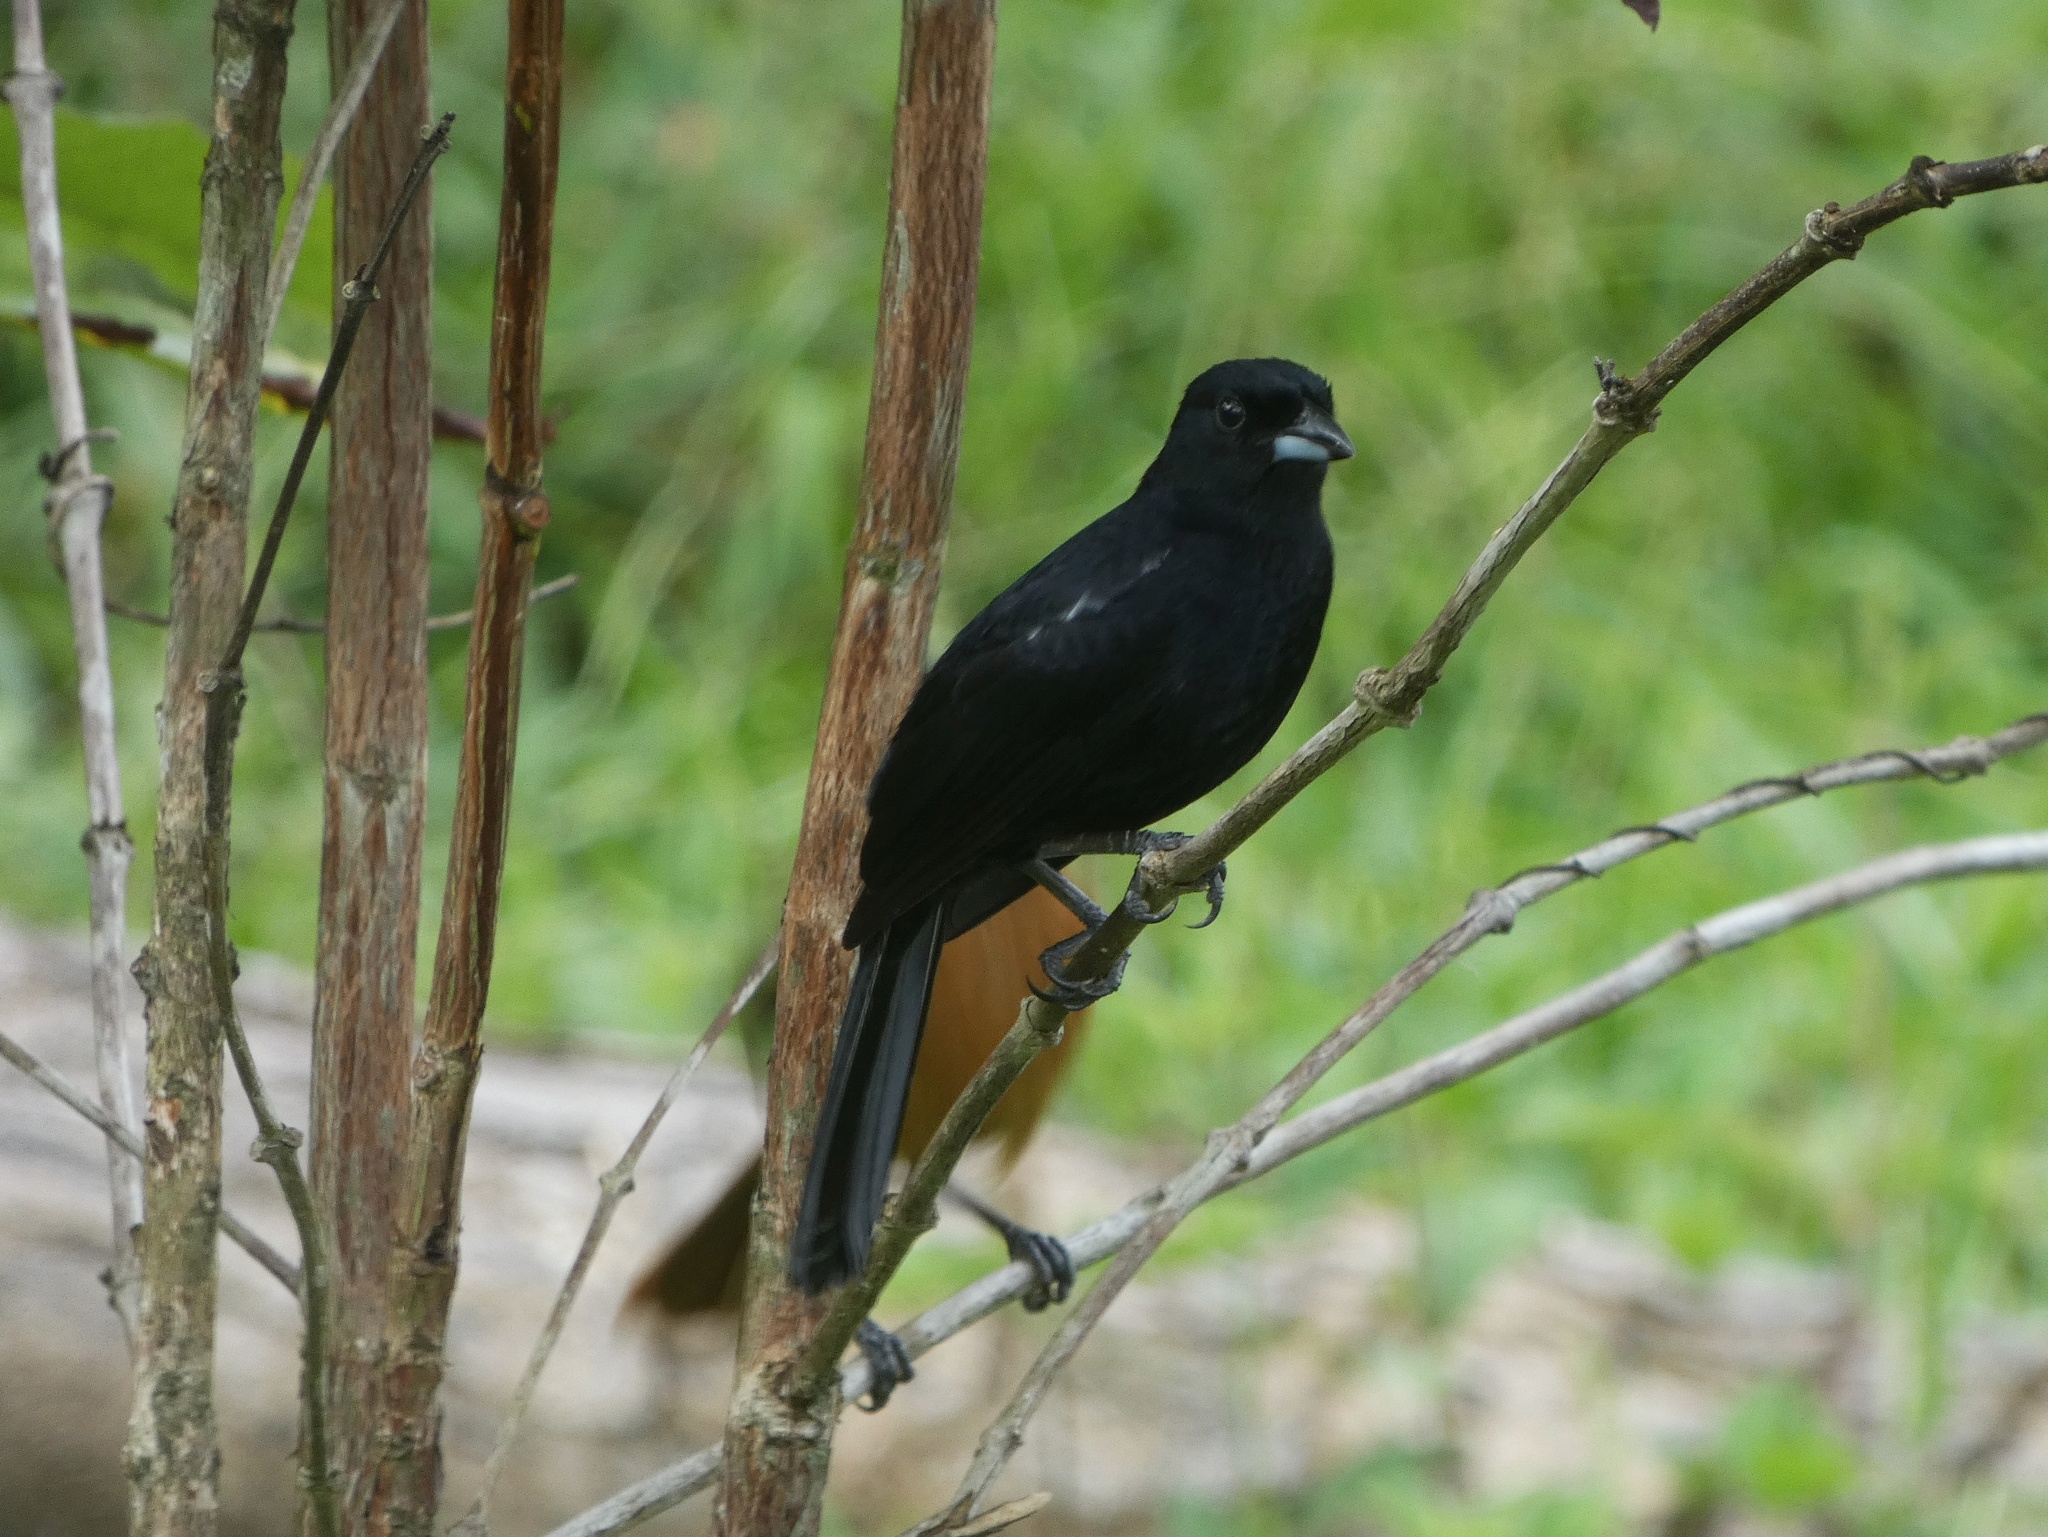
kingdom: Animalia
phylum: Chordata
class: Aves
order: Passeriformes
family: Thraupidae
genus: Tachyphonus
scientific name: Tachyphonus rufus
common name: White-lined tanager
